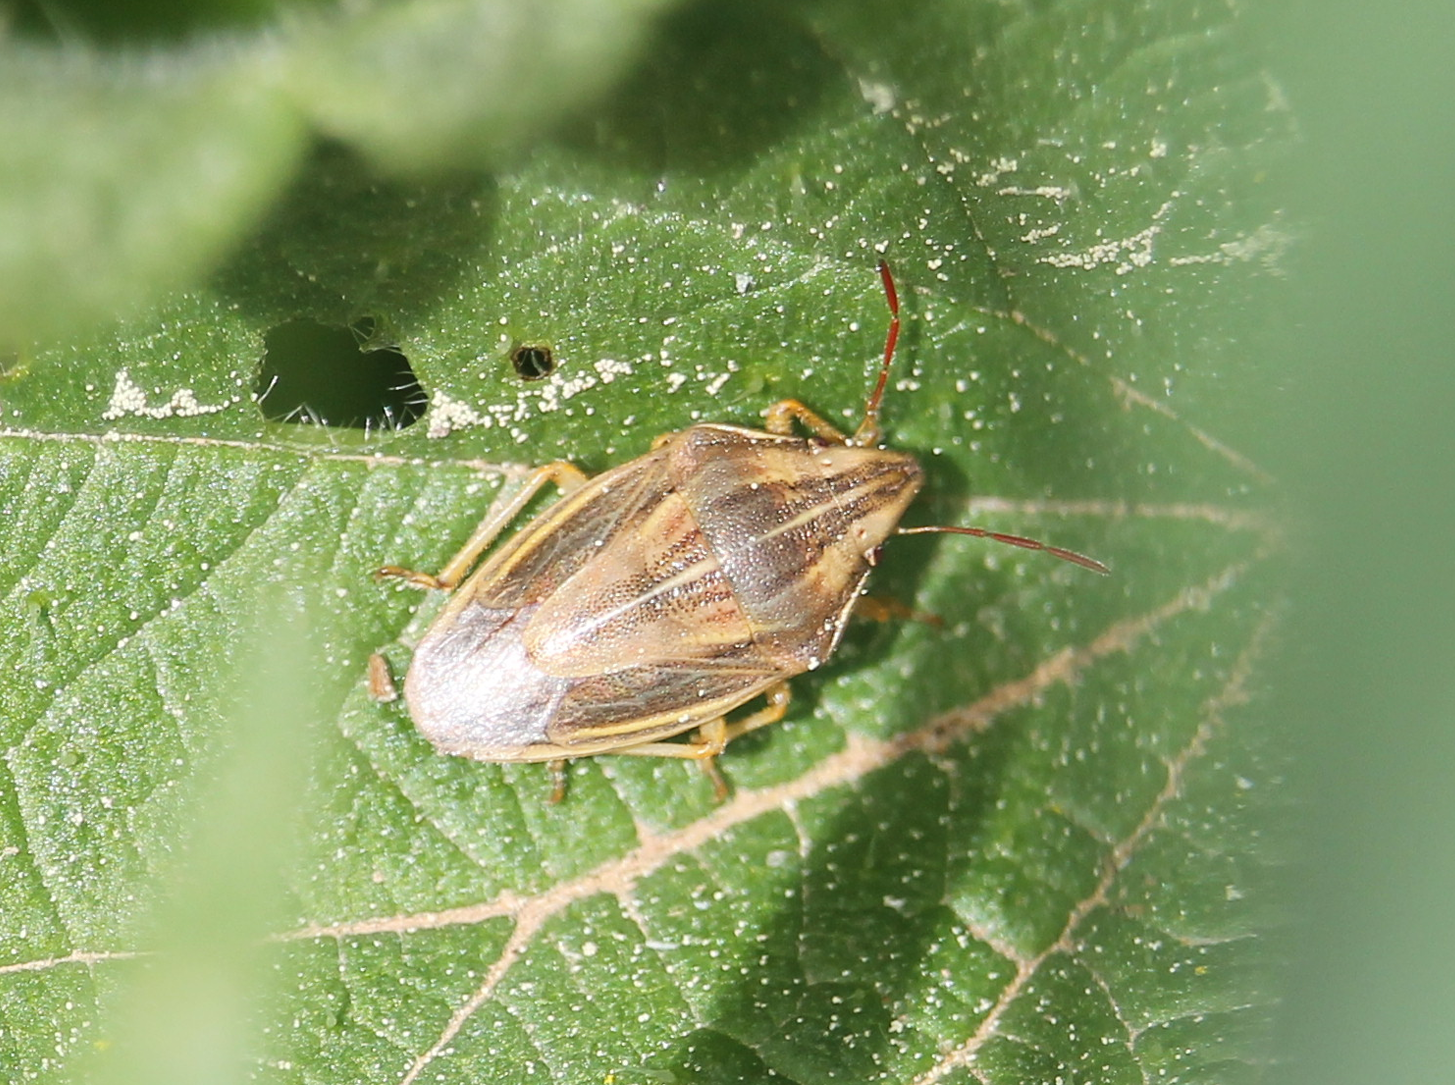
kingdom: Animalia
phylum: Arthropoda
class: Insecta
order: Hemiptera
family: Pentatomidae
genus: Aelia
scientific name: Aelia acuminata
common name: Bishop's mitre
